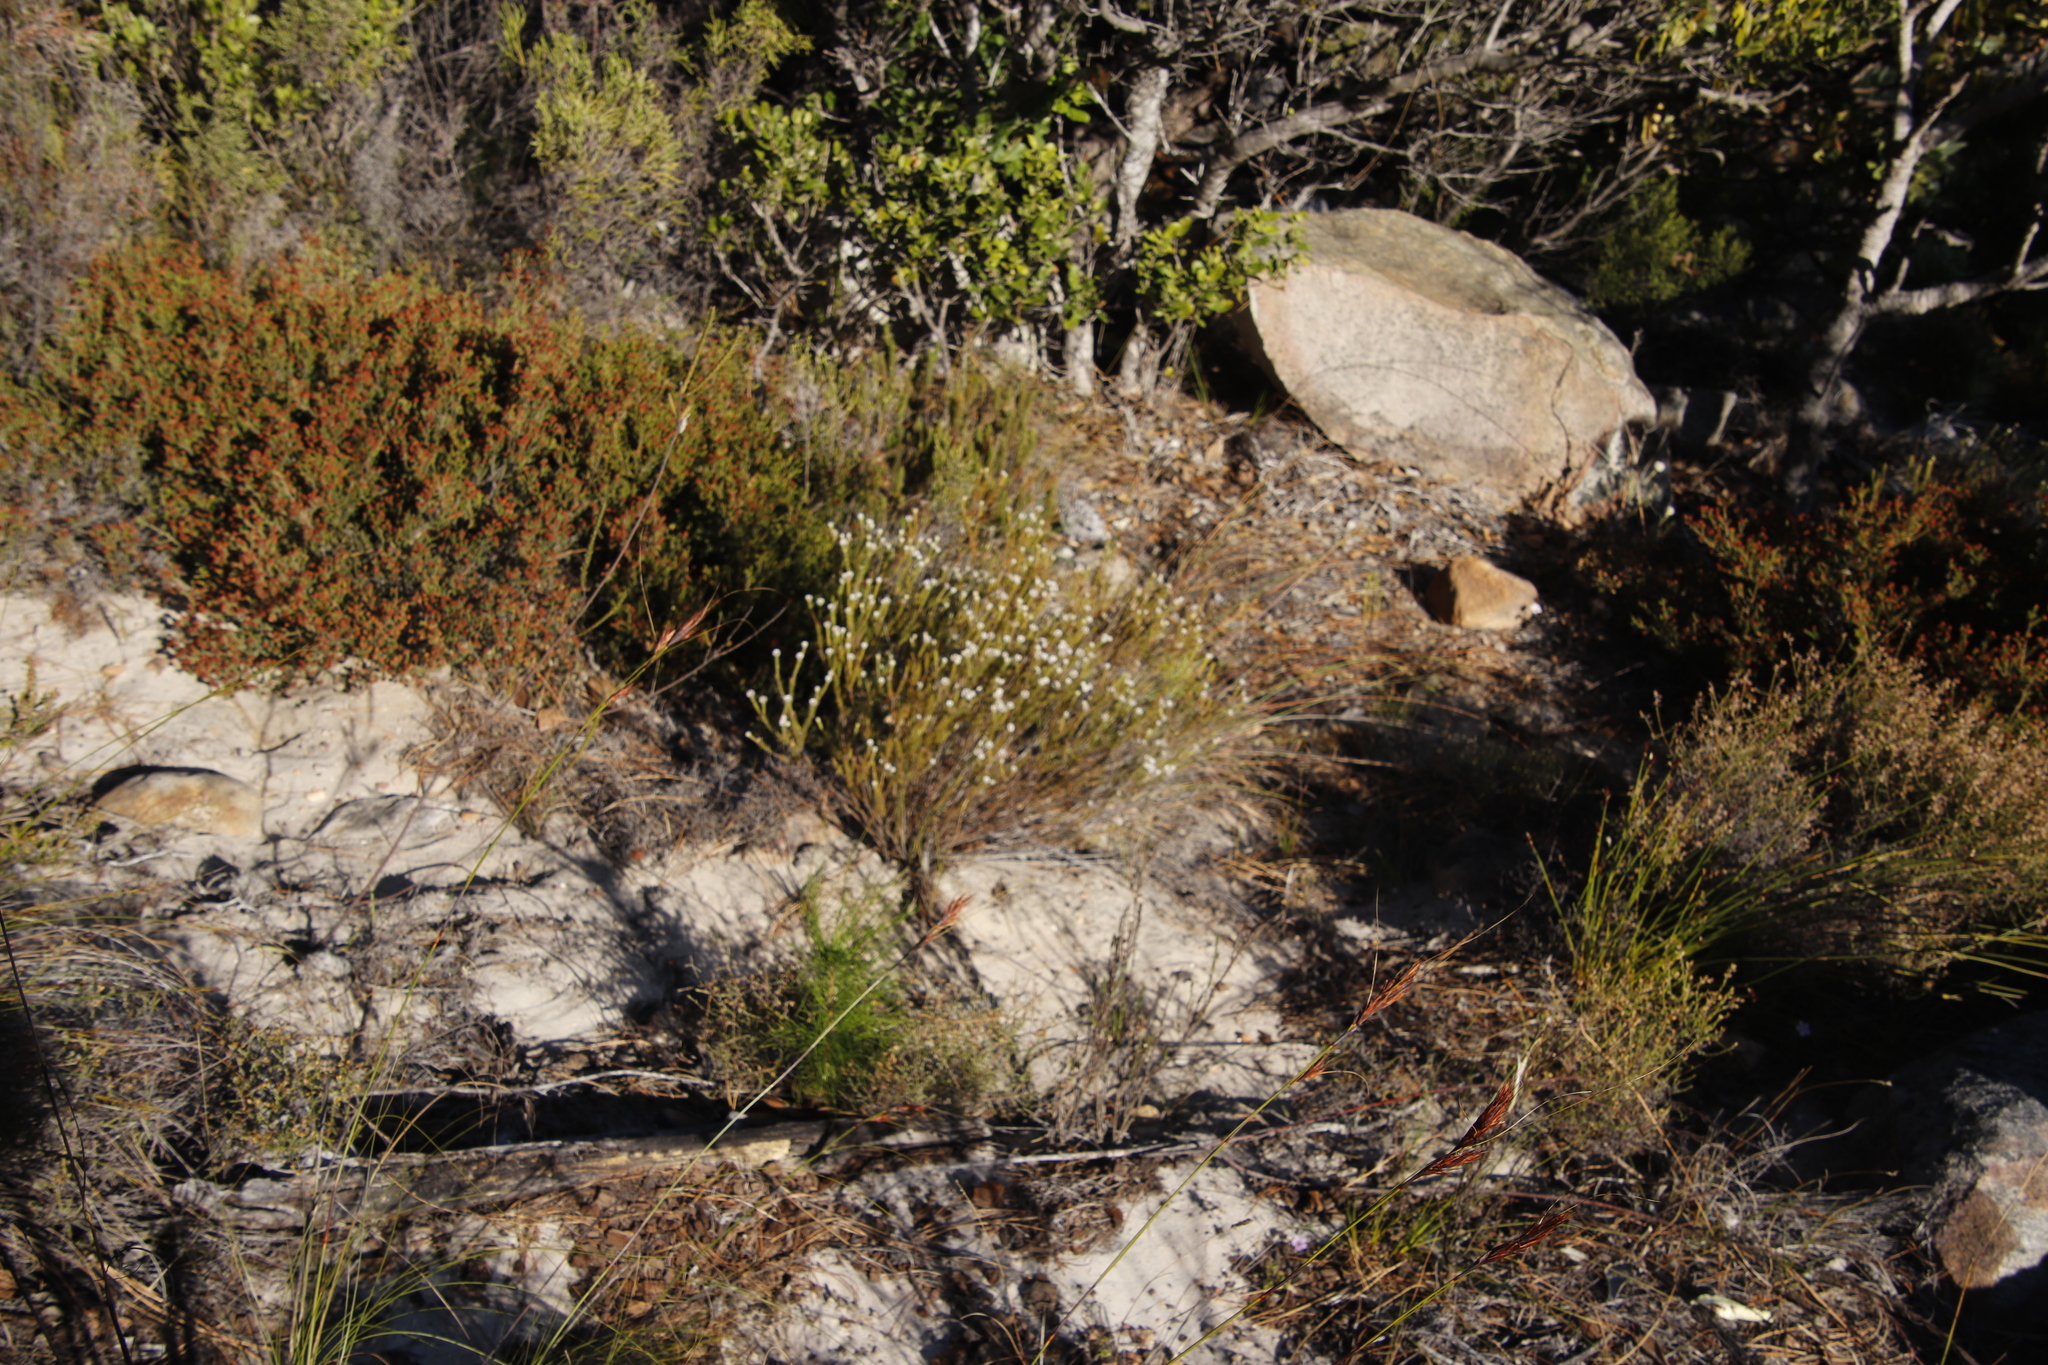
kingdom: Plantae
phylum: Tracheophyta
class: Magnoliopsida
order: Bruniales
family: Bruniaceae
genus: Staavia
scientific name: Staavia radiata
